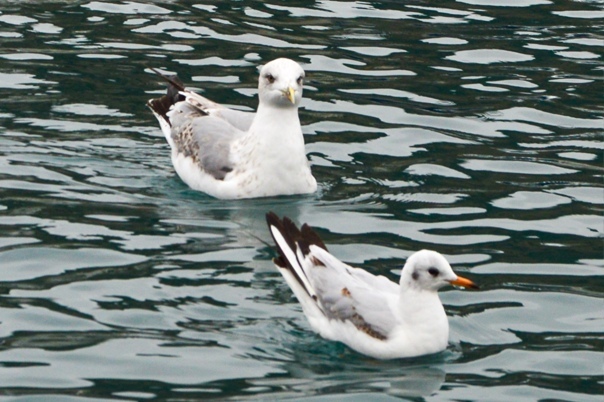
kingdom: Animalia
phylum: Chordata
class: Aves
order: Charadriiformes
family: Laridae
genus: Chroicocephalus
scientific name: Chroicocephalus ridibundus
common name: Black-headed gull
